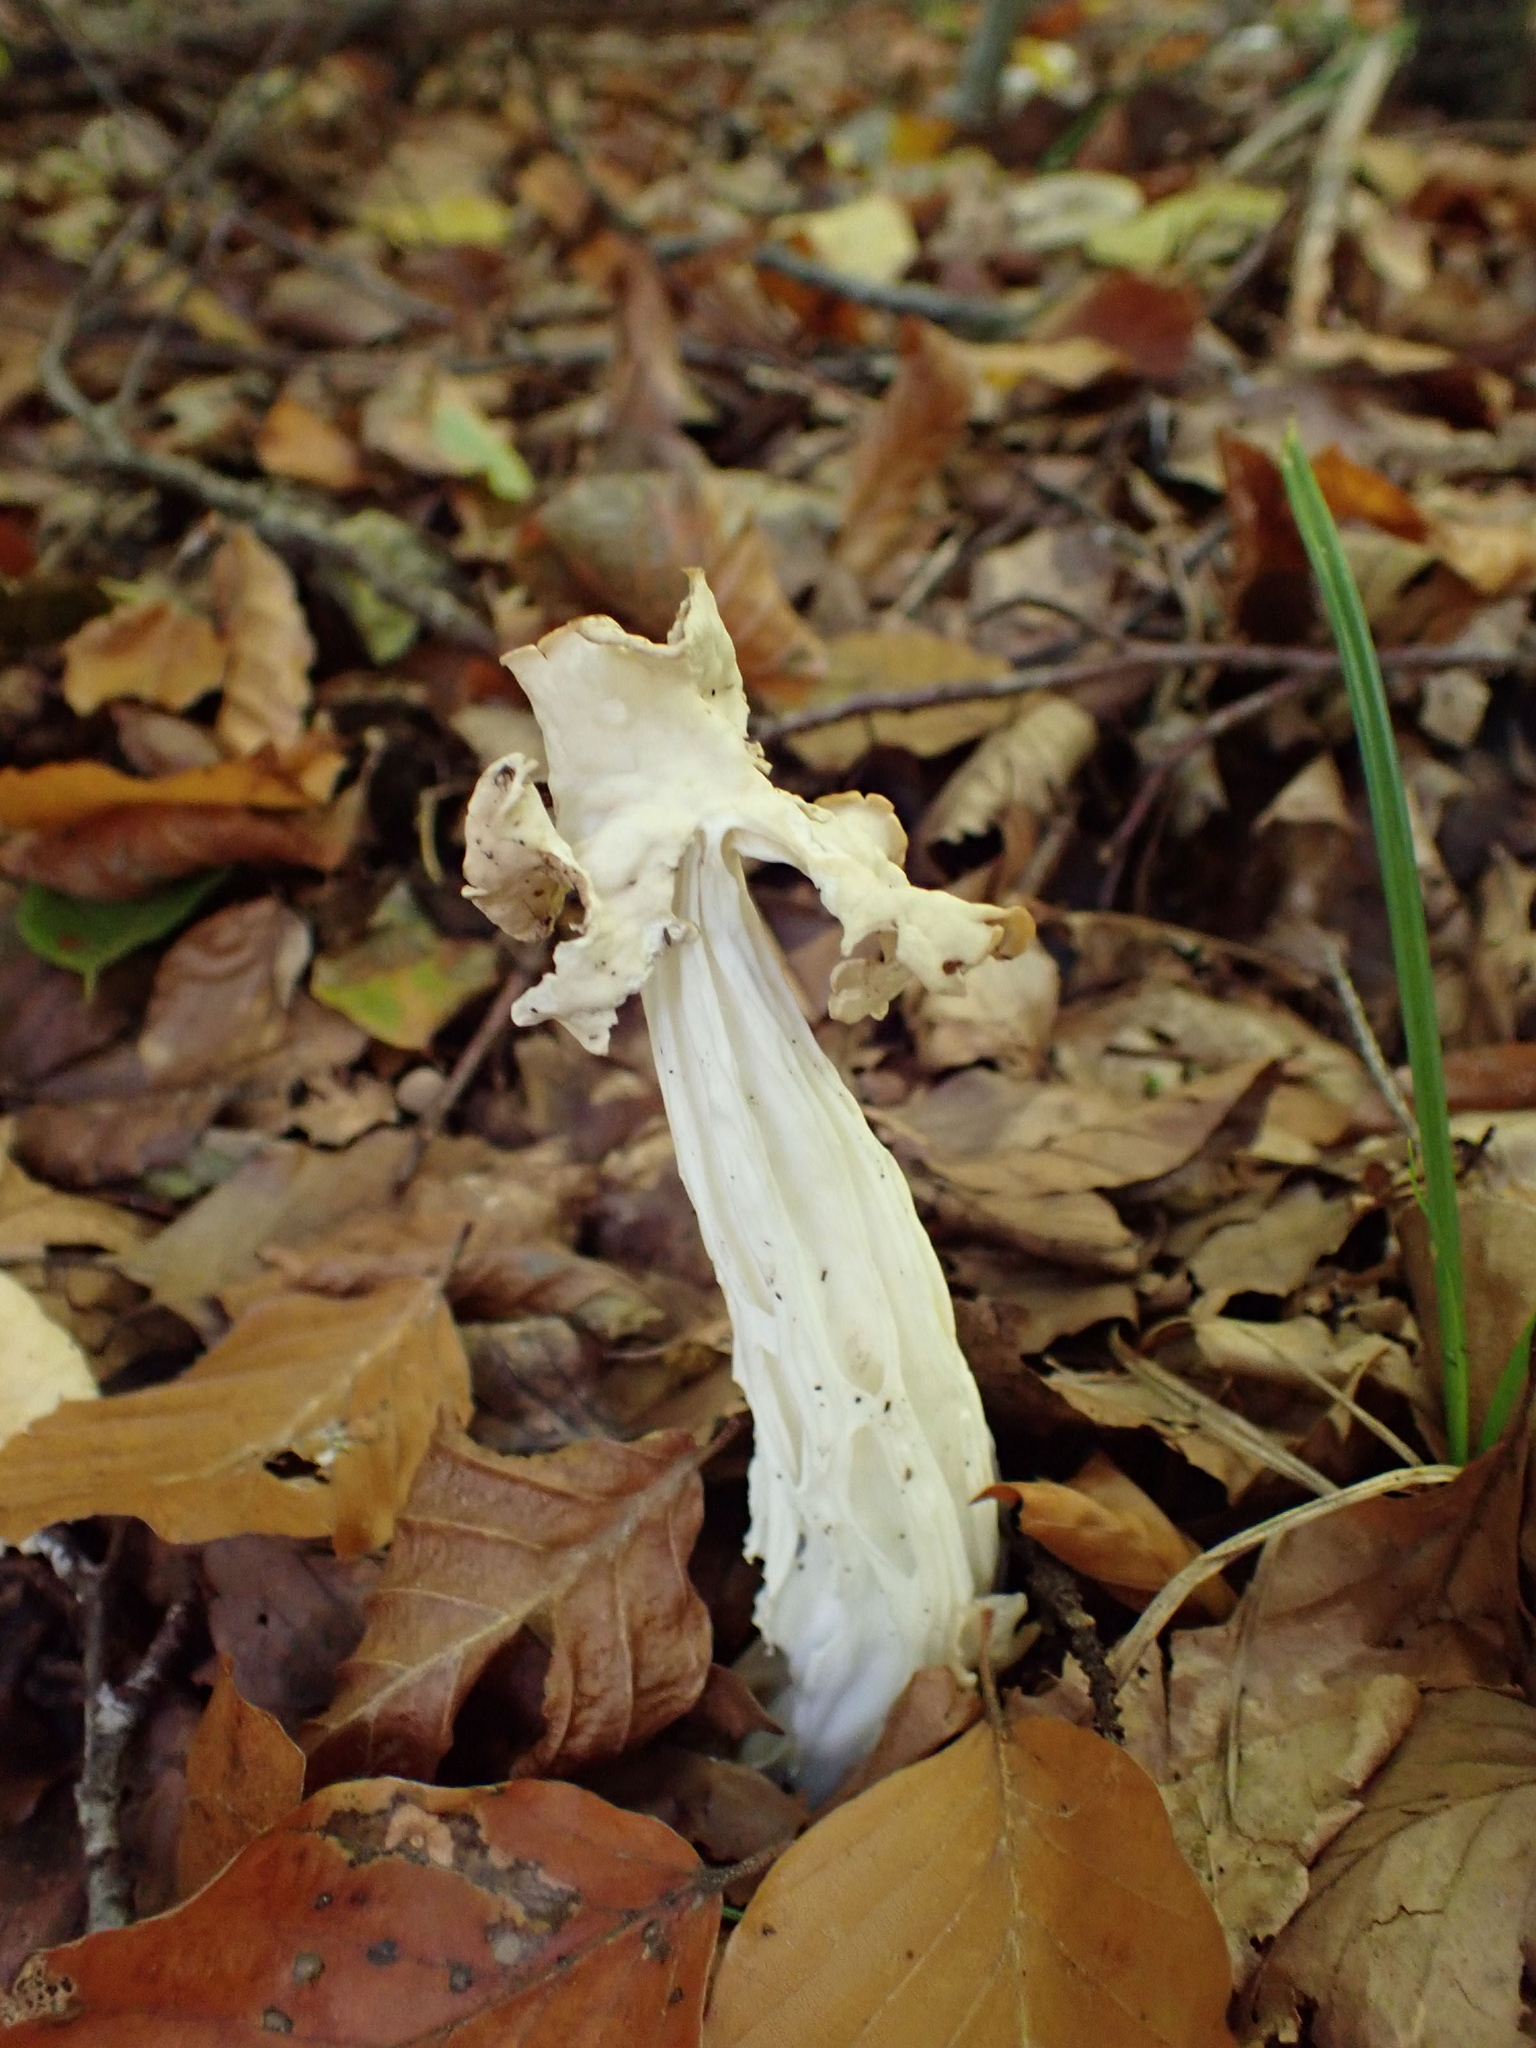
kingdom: Fungi
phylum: Ascomycota
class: Pezizomycetes
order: Pezizales
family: Helvellaceae
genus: Helvella
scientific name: Helvella crispa
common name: White saddle
